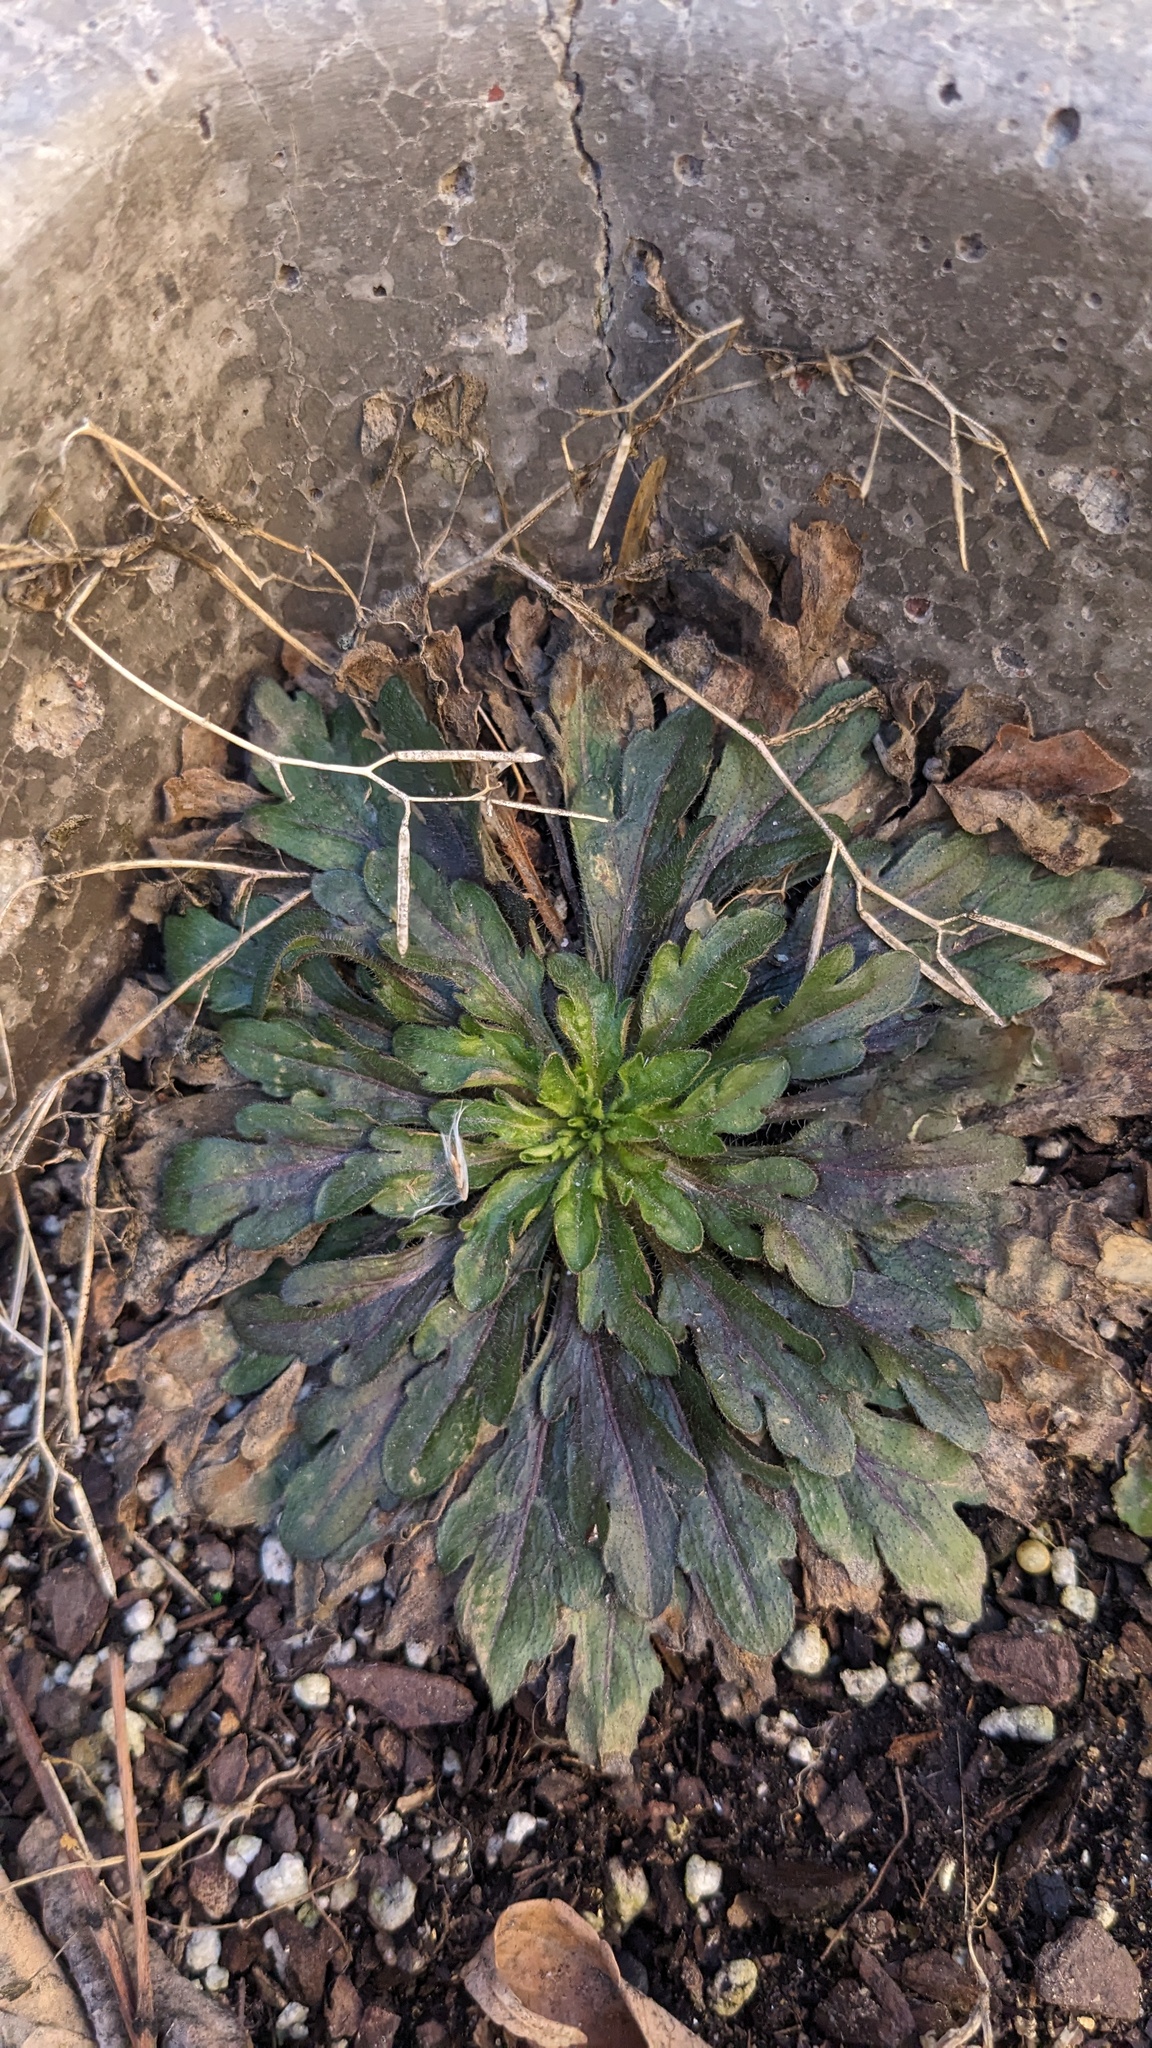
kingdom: Plantae
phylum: Tracheophyta
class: Magnoliopsida
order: Asterales
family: Asteraceae
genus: Erigeron
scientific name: Erigeron canadensis
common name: Canadian fleabane
